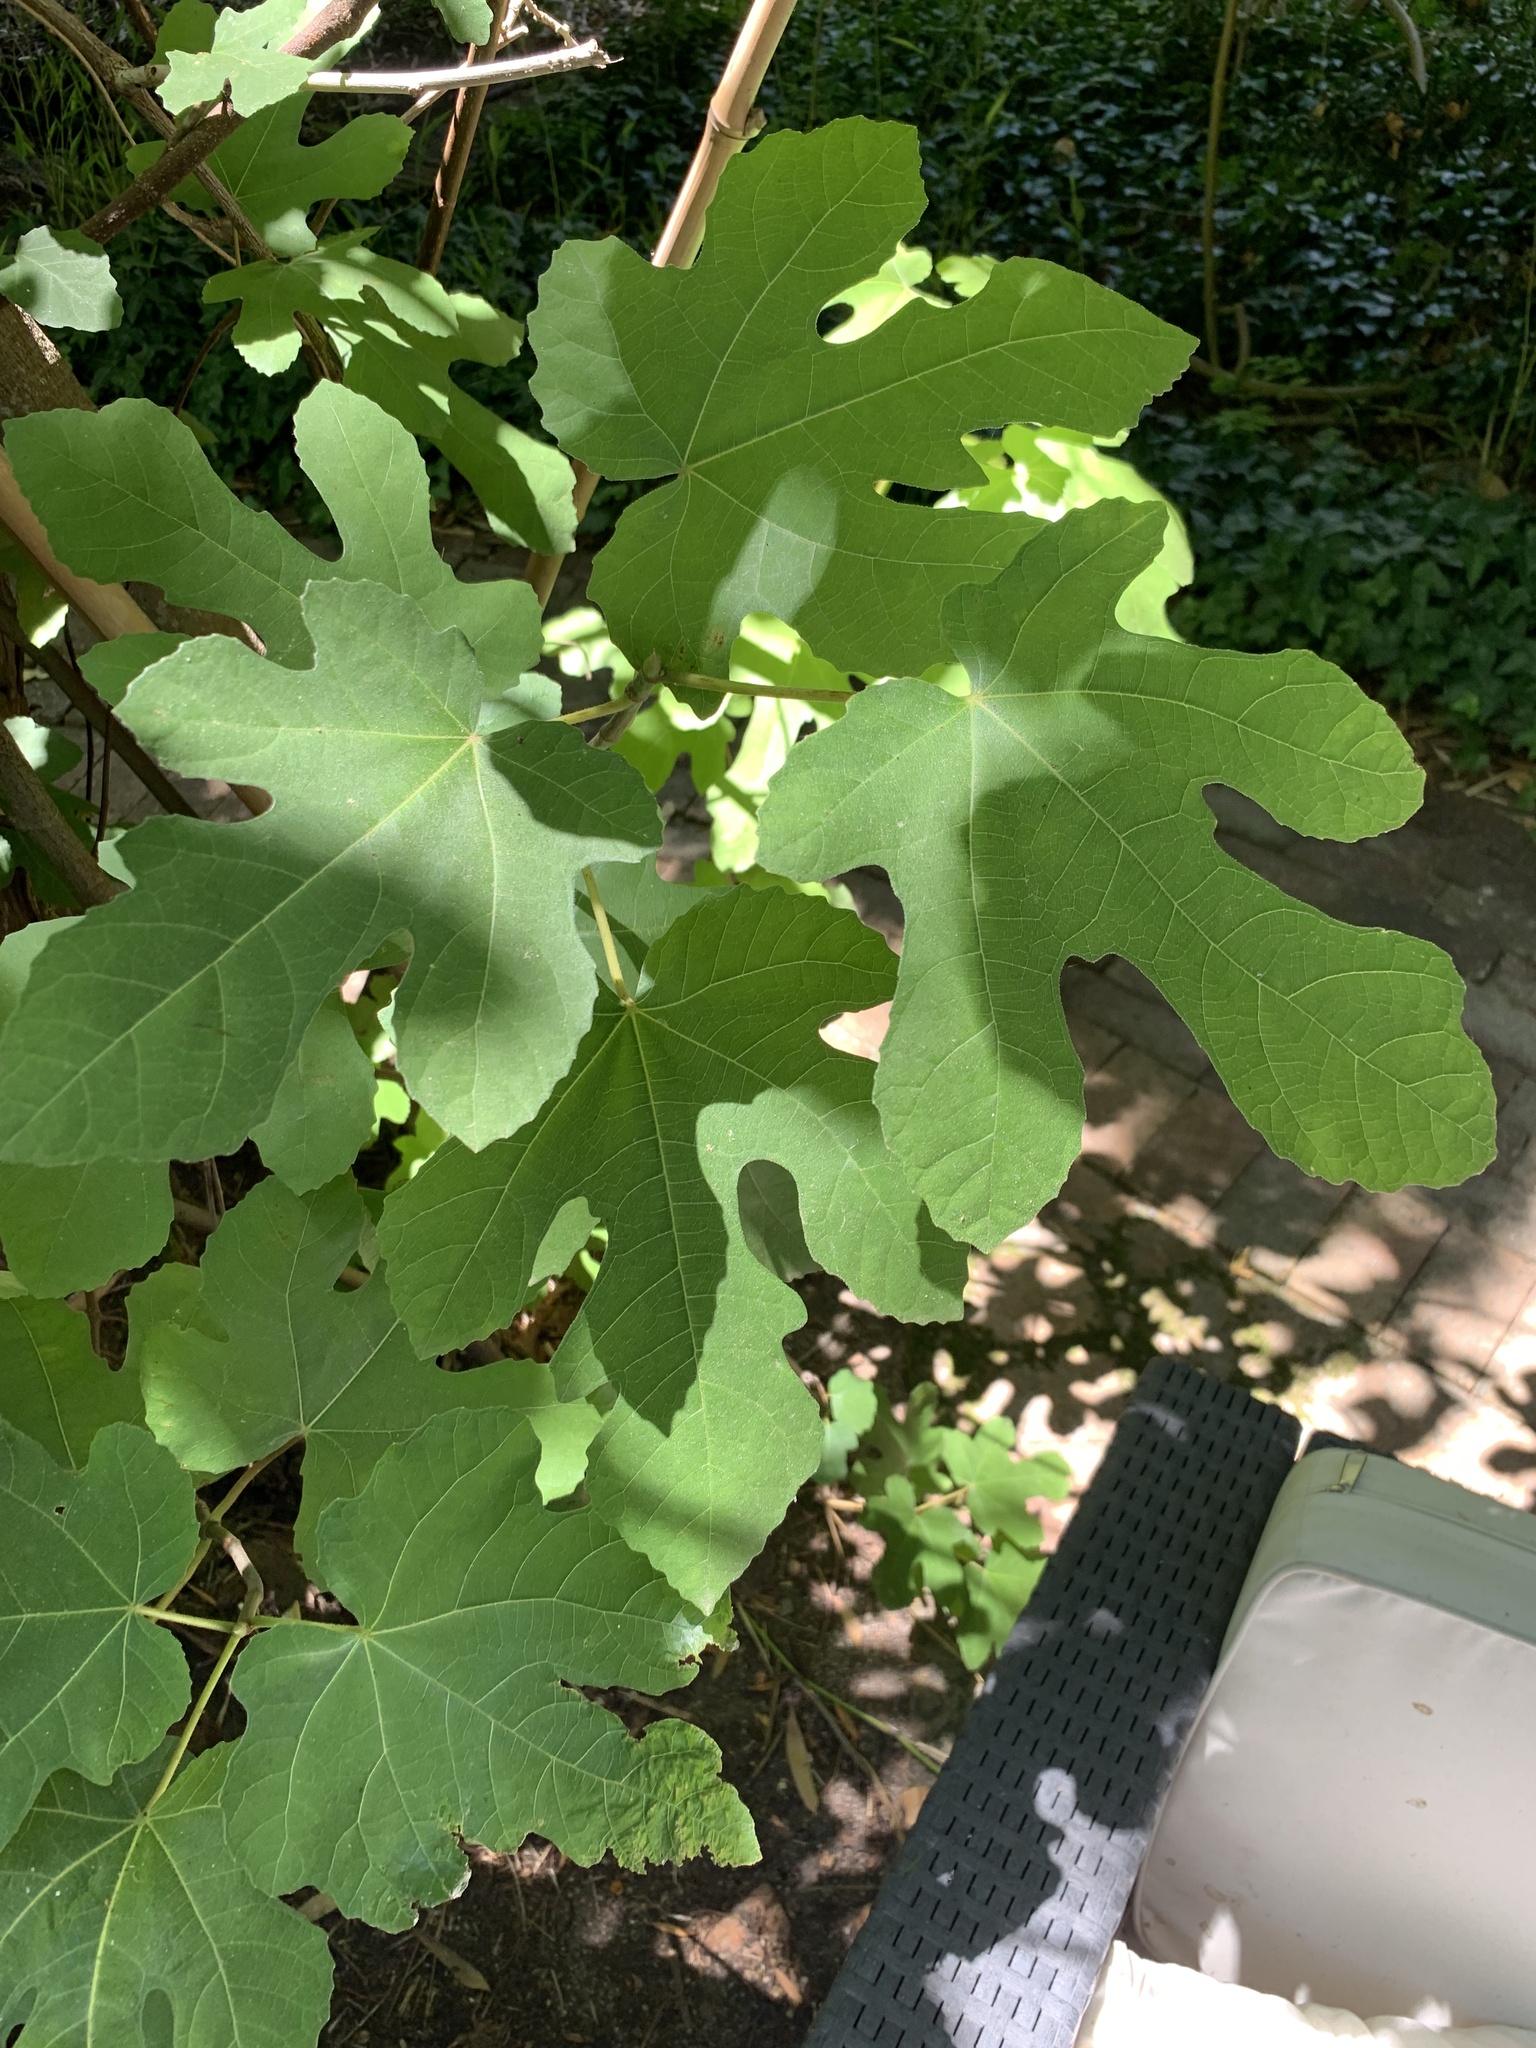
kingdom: Plantae
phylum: Tracheophyta
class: Magnoliopsida
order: Rosales
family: Moraceae
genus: Ficus
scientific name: Ficus carica
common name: Fig
